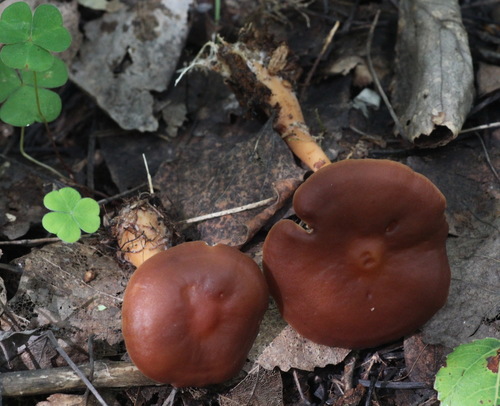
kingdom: Fungi
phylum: Basidiomycota
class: Agaricomycetes
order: Agaricales
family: Omphalotaceae
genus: Gymnopus
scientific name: Gymnopus ocior
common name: Spring toughshank
